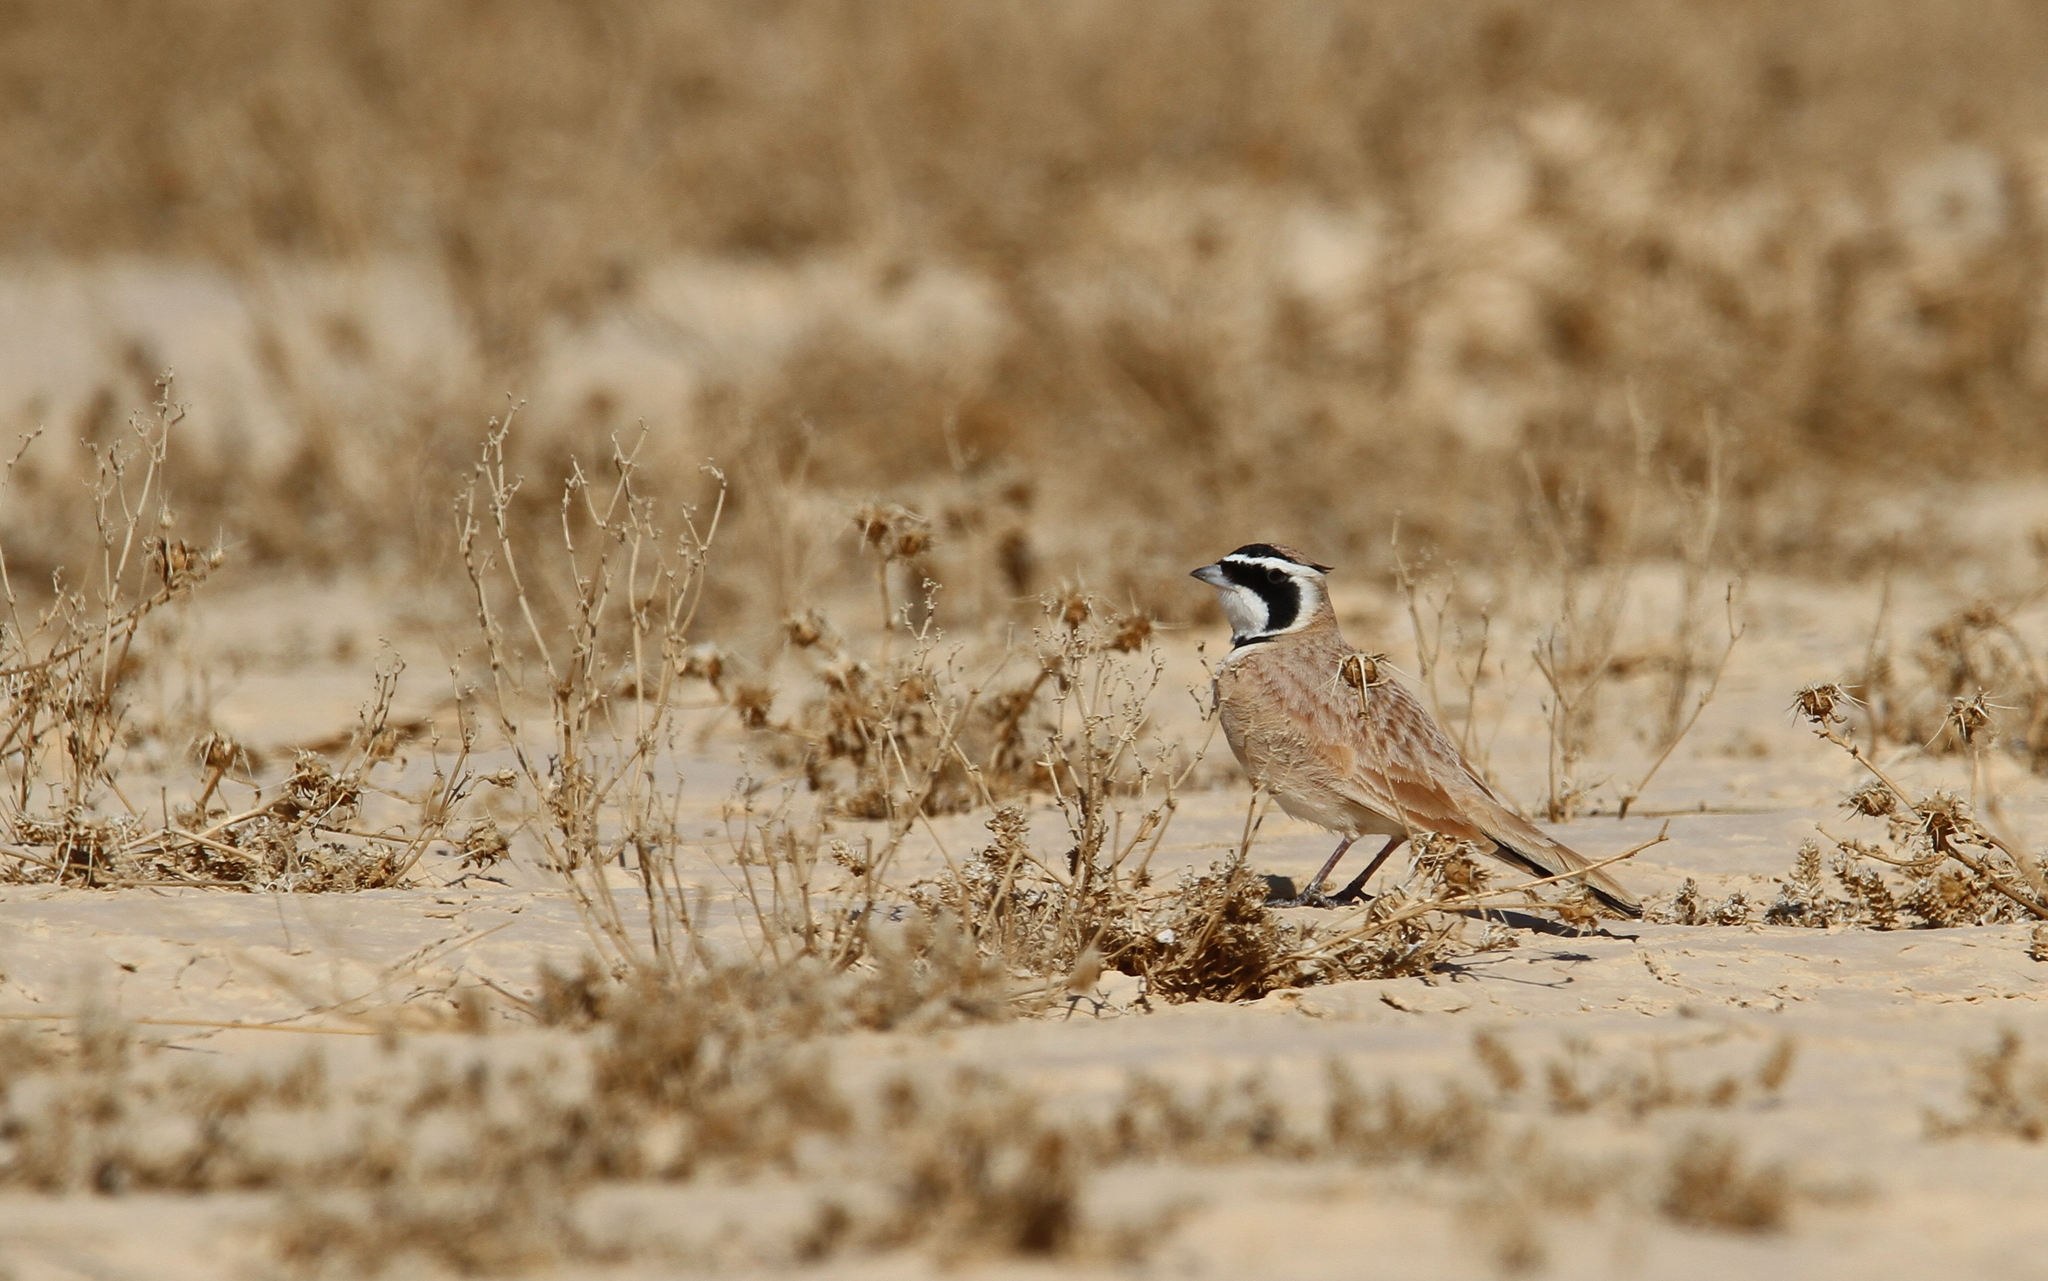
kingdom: Animalia
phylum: Chordata
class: Aves
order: Passeriformes
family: Alaudidae
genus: Eremophila
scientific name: Eremophila bilopha
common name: Temminck's lark
